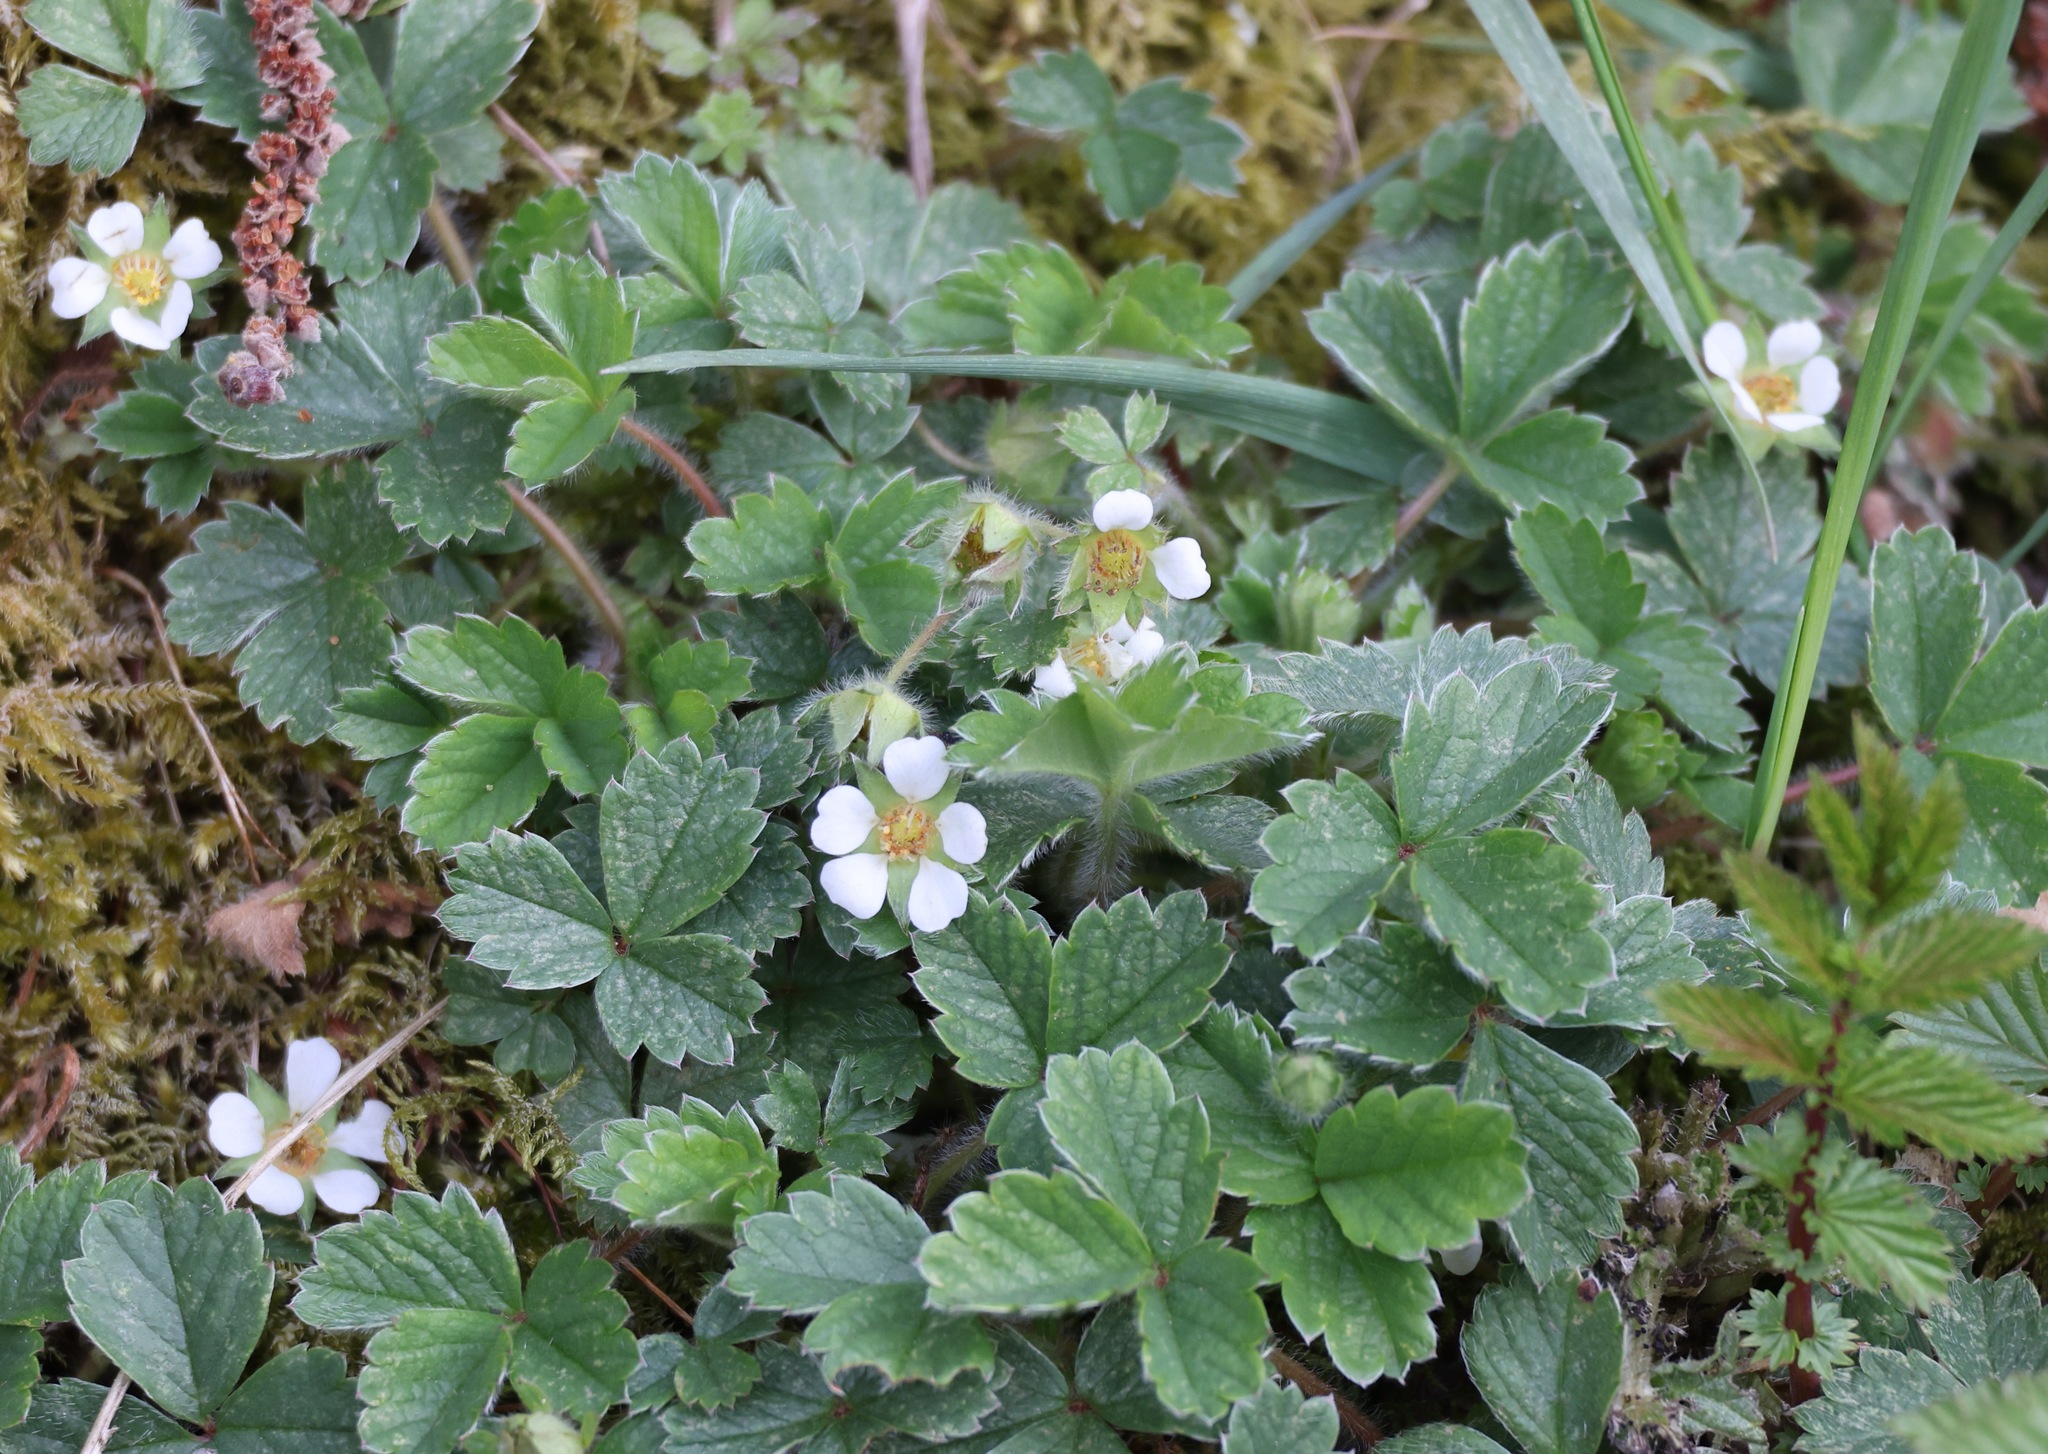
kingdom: Plantae
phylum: Tracheophyta
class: Magnoliopsida
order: Rosales
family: Rosaceae
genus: Potentilla
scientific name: Potentilla sterilis
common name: Barren strawberry
